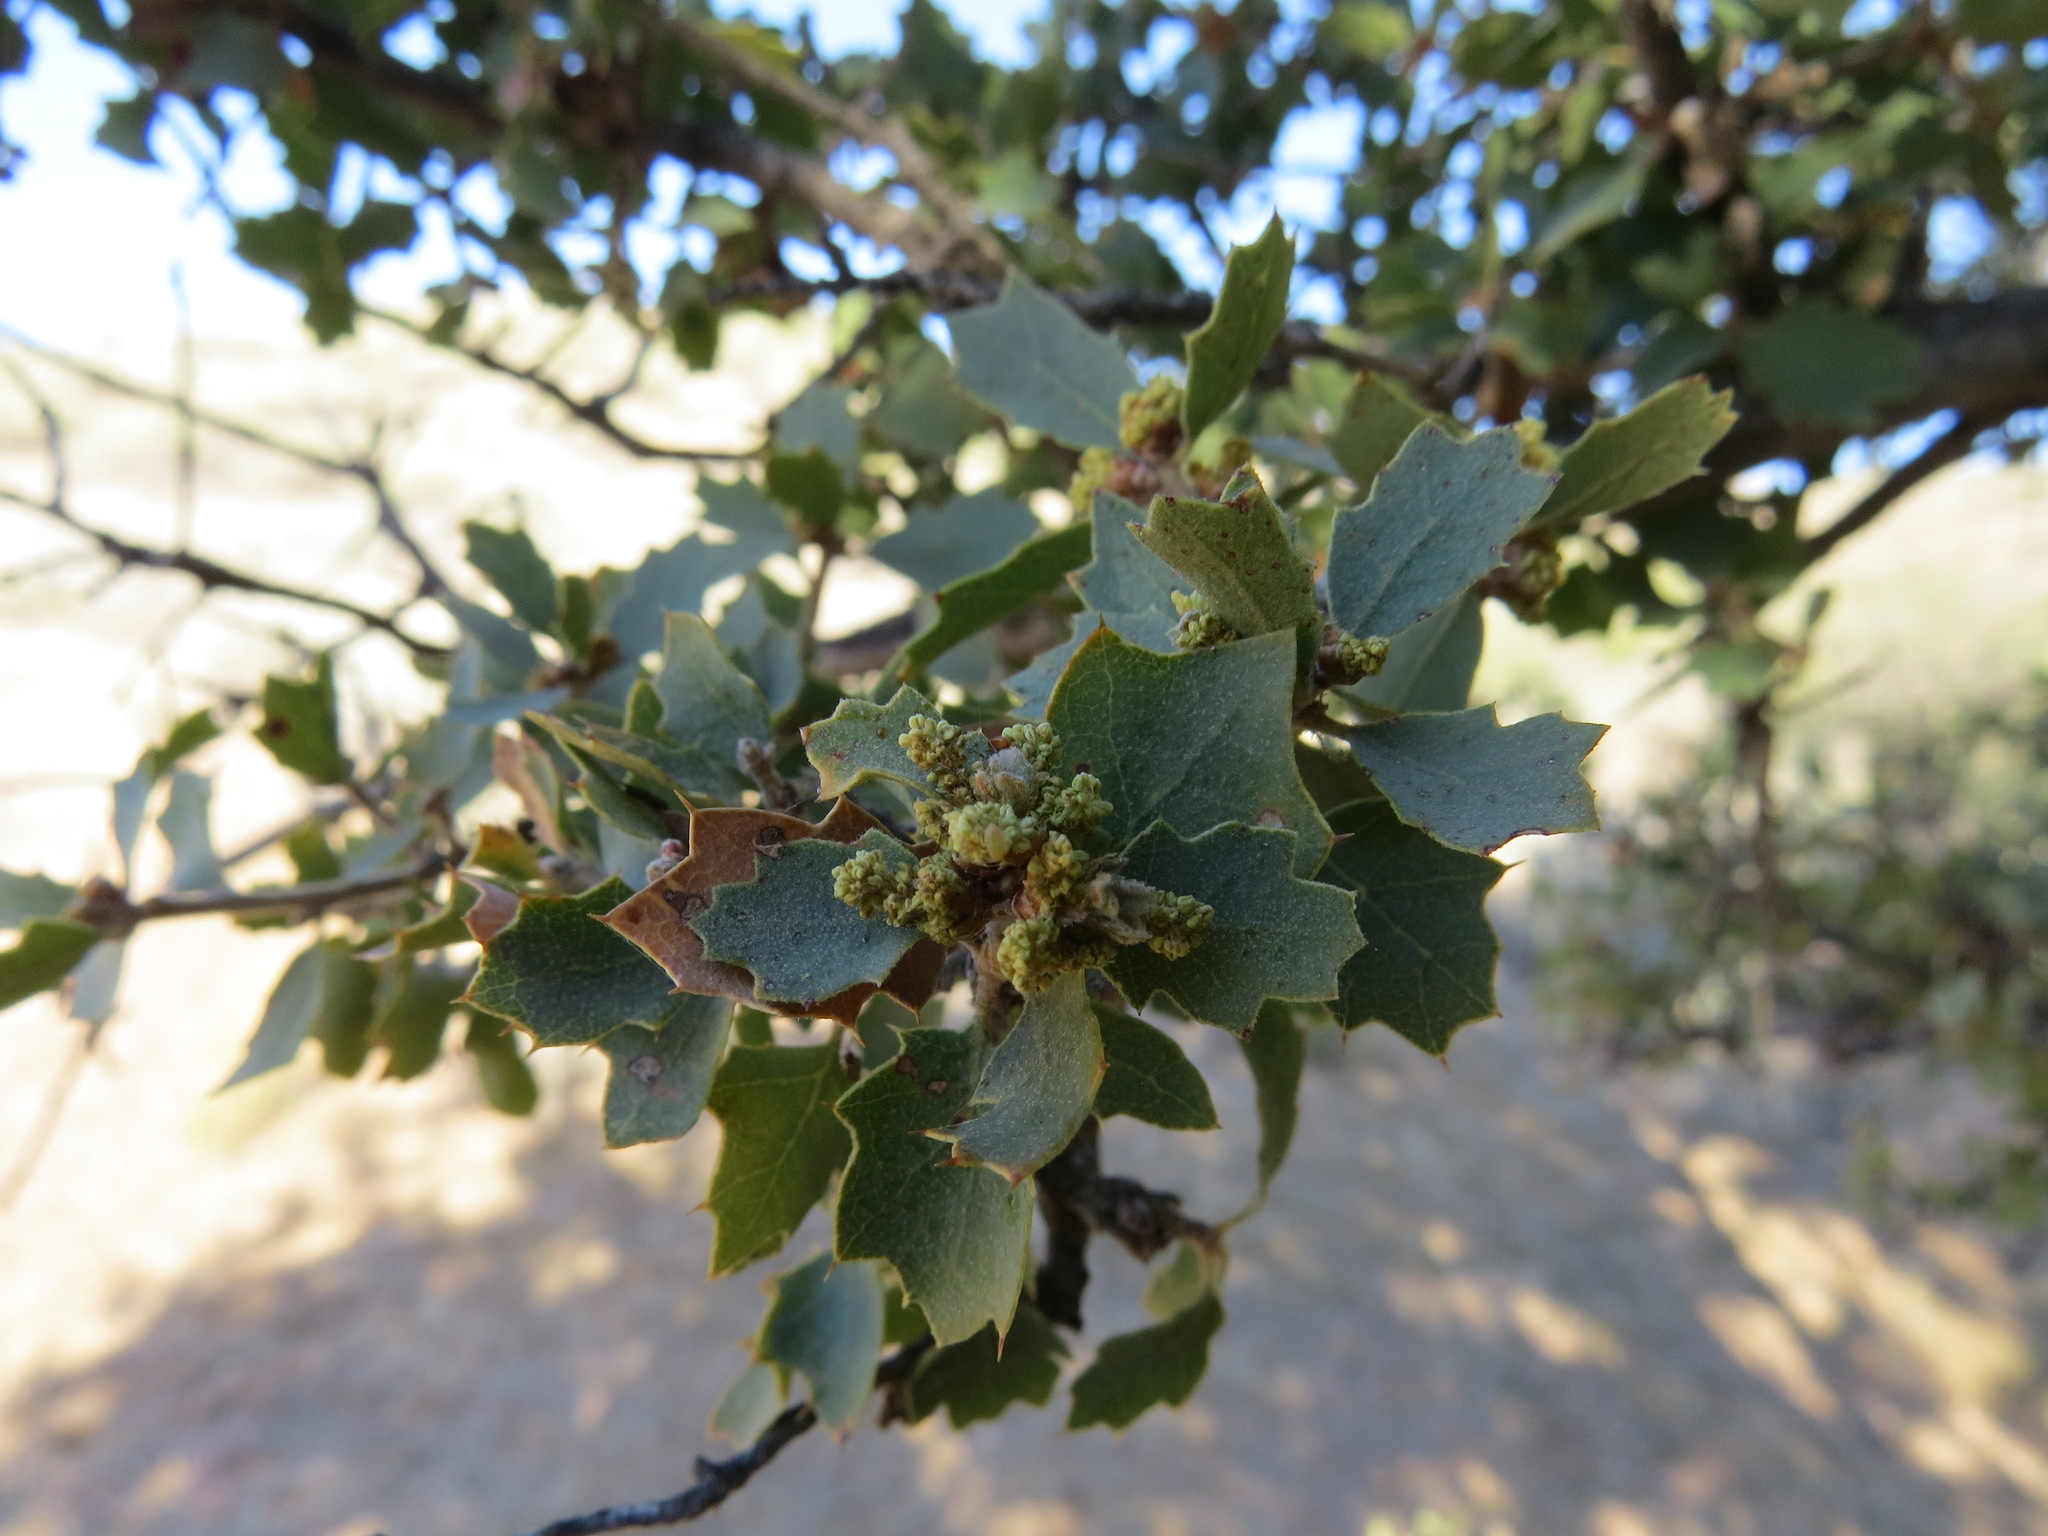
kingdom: Plantae
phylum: Tracheophyta
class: Magnoliopsida
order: Fagales
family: Fagaceae
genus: Quercus
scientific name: Quercus alvordiana
